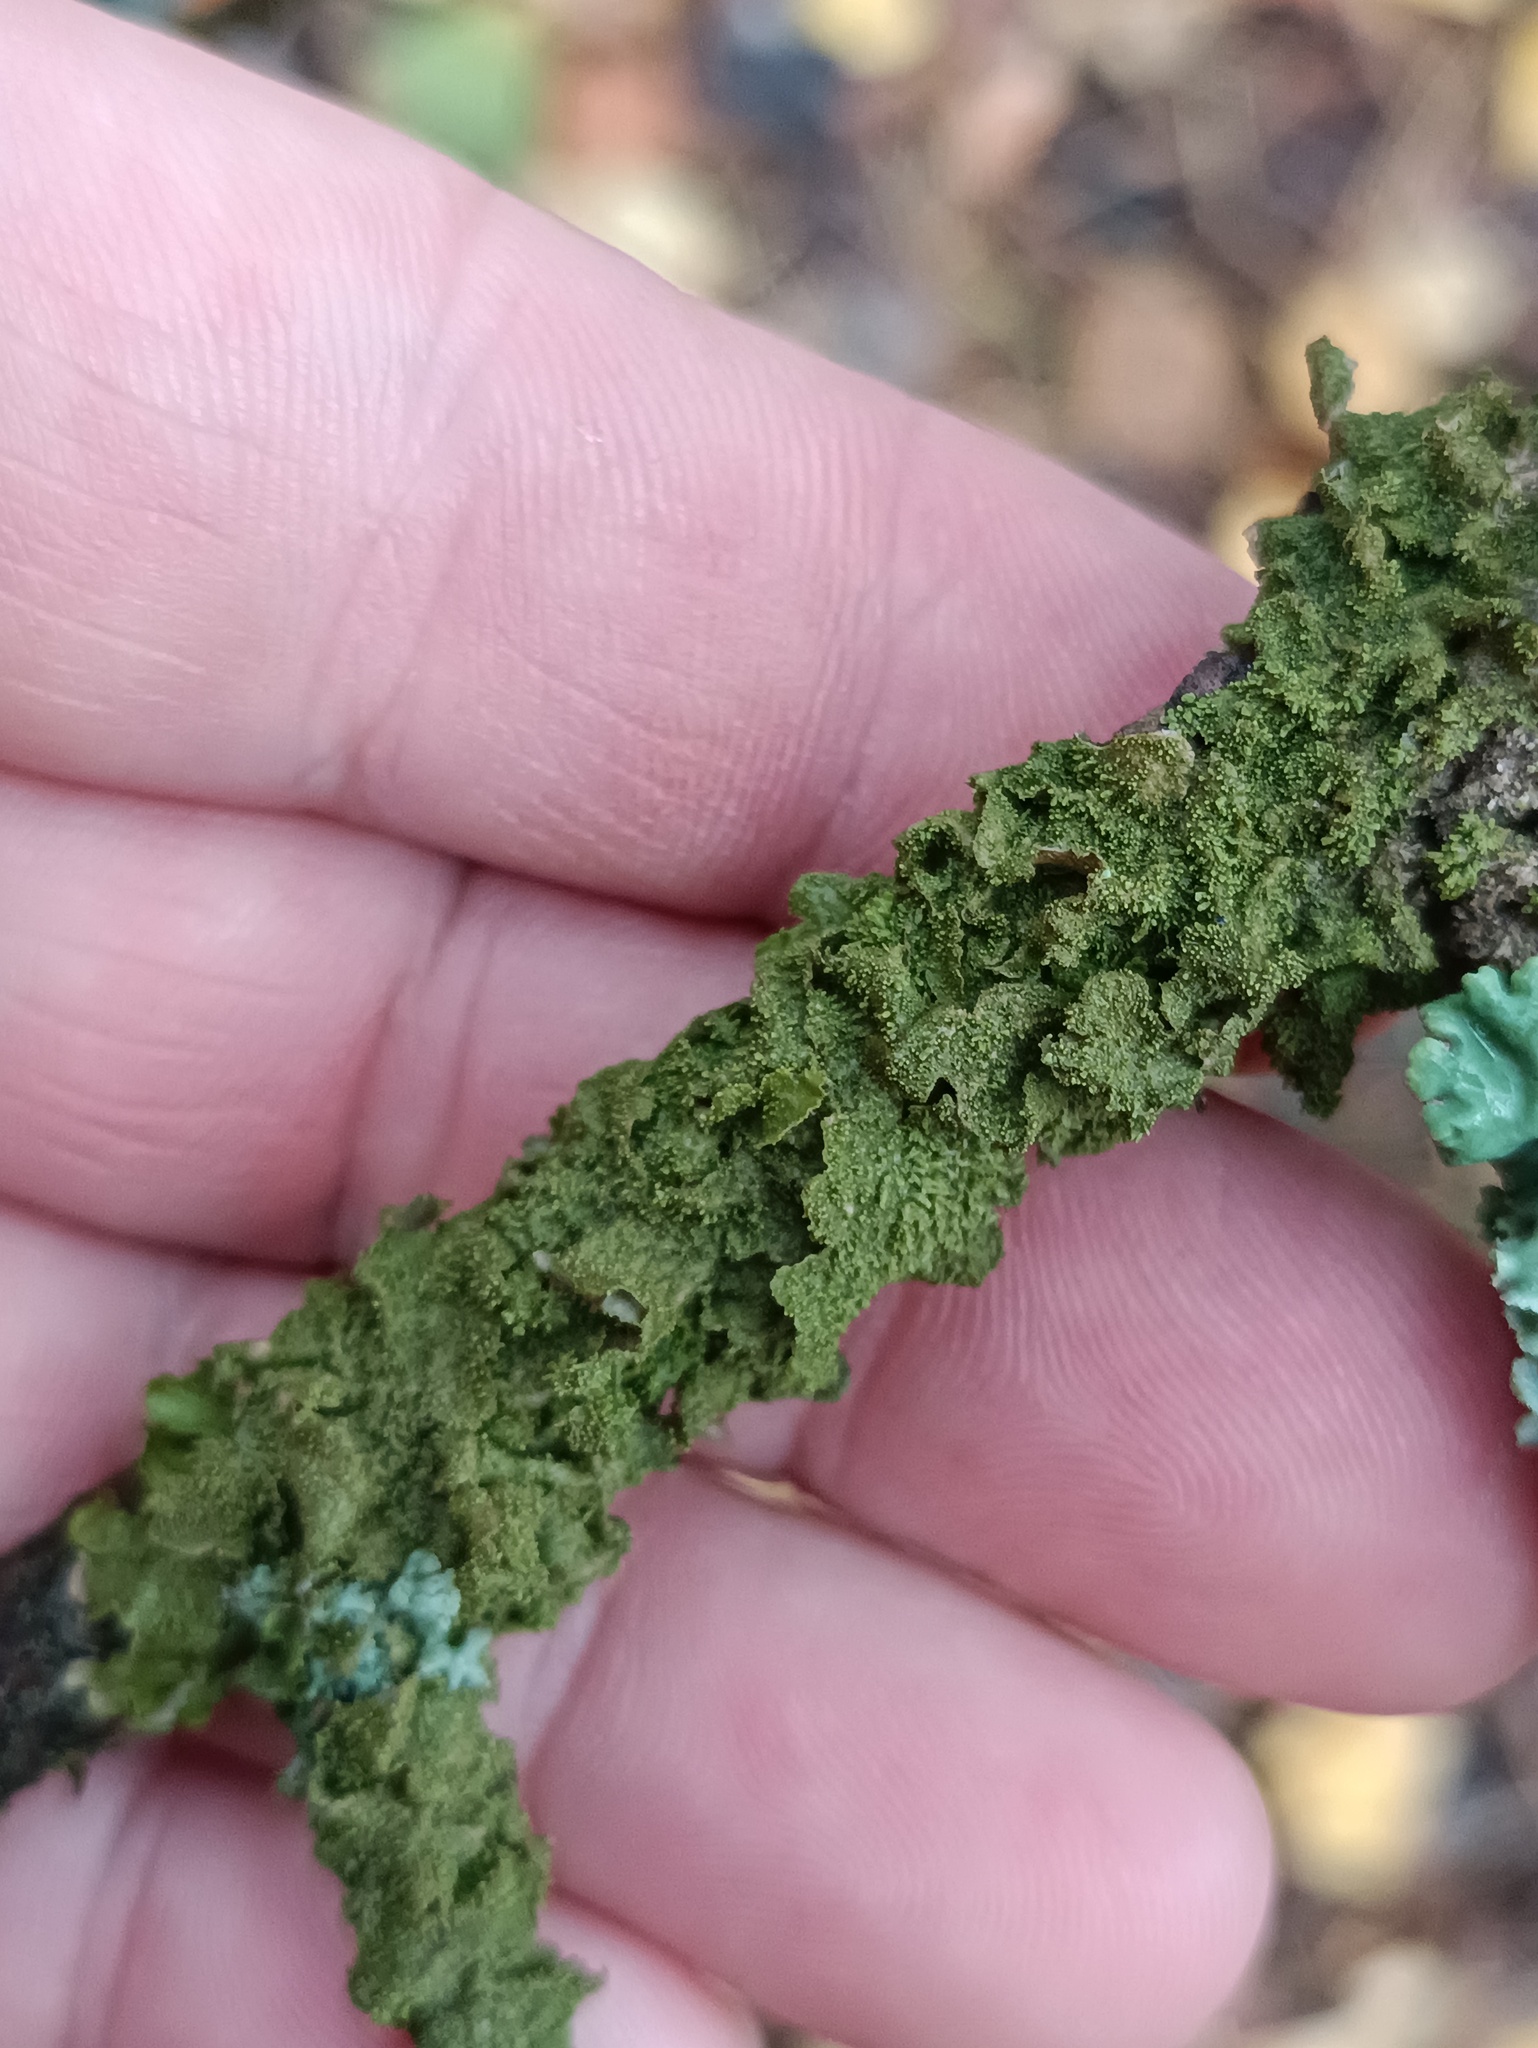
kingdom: Fungi
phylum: Ascomycota
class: Lecanoromycetes
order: Lecanorales
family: Parmeliaceae
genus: Melanohalea
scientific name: Melanohalea exasperatula
